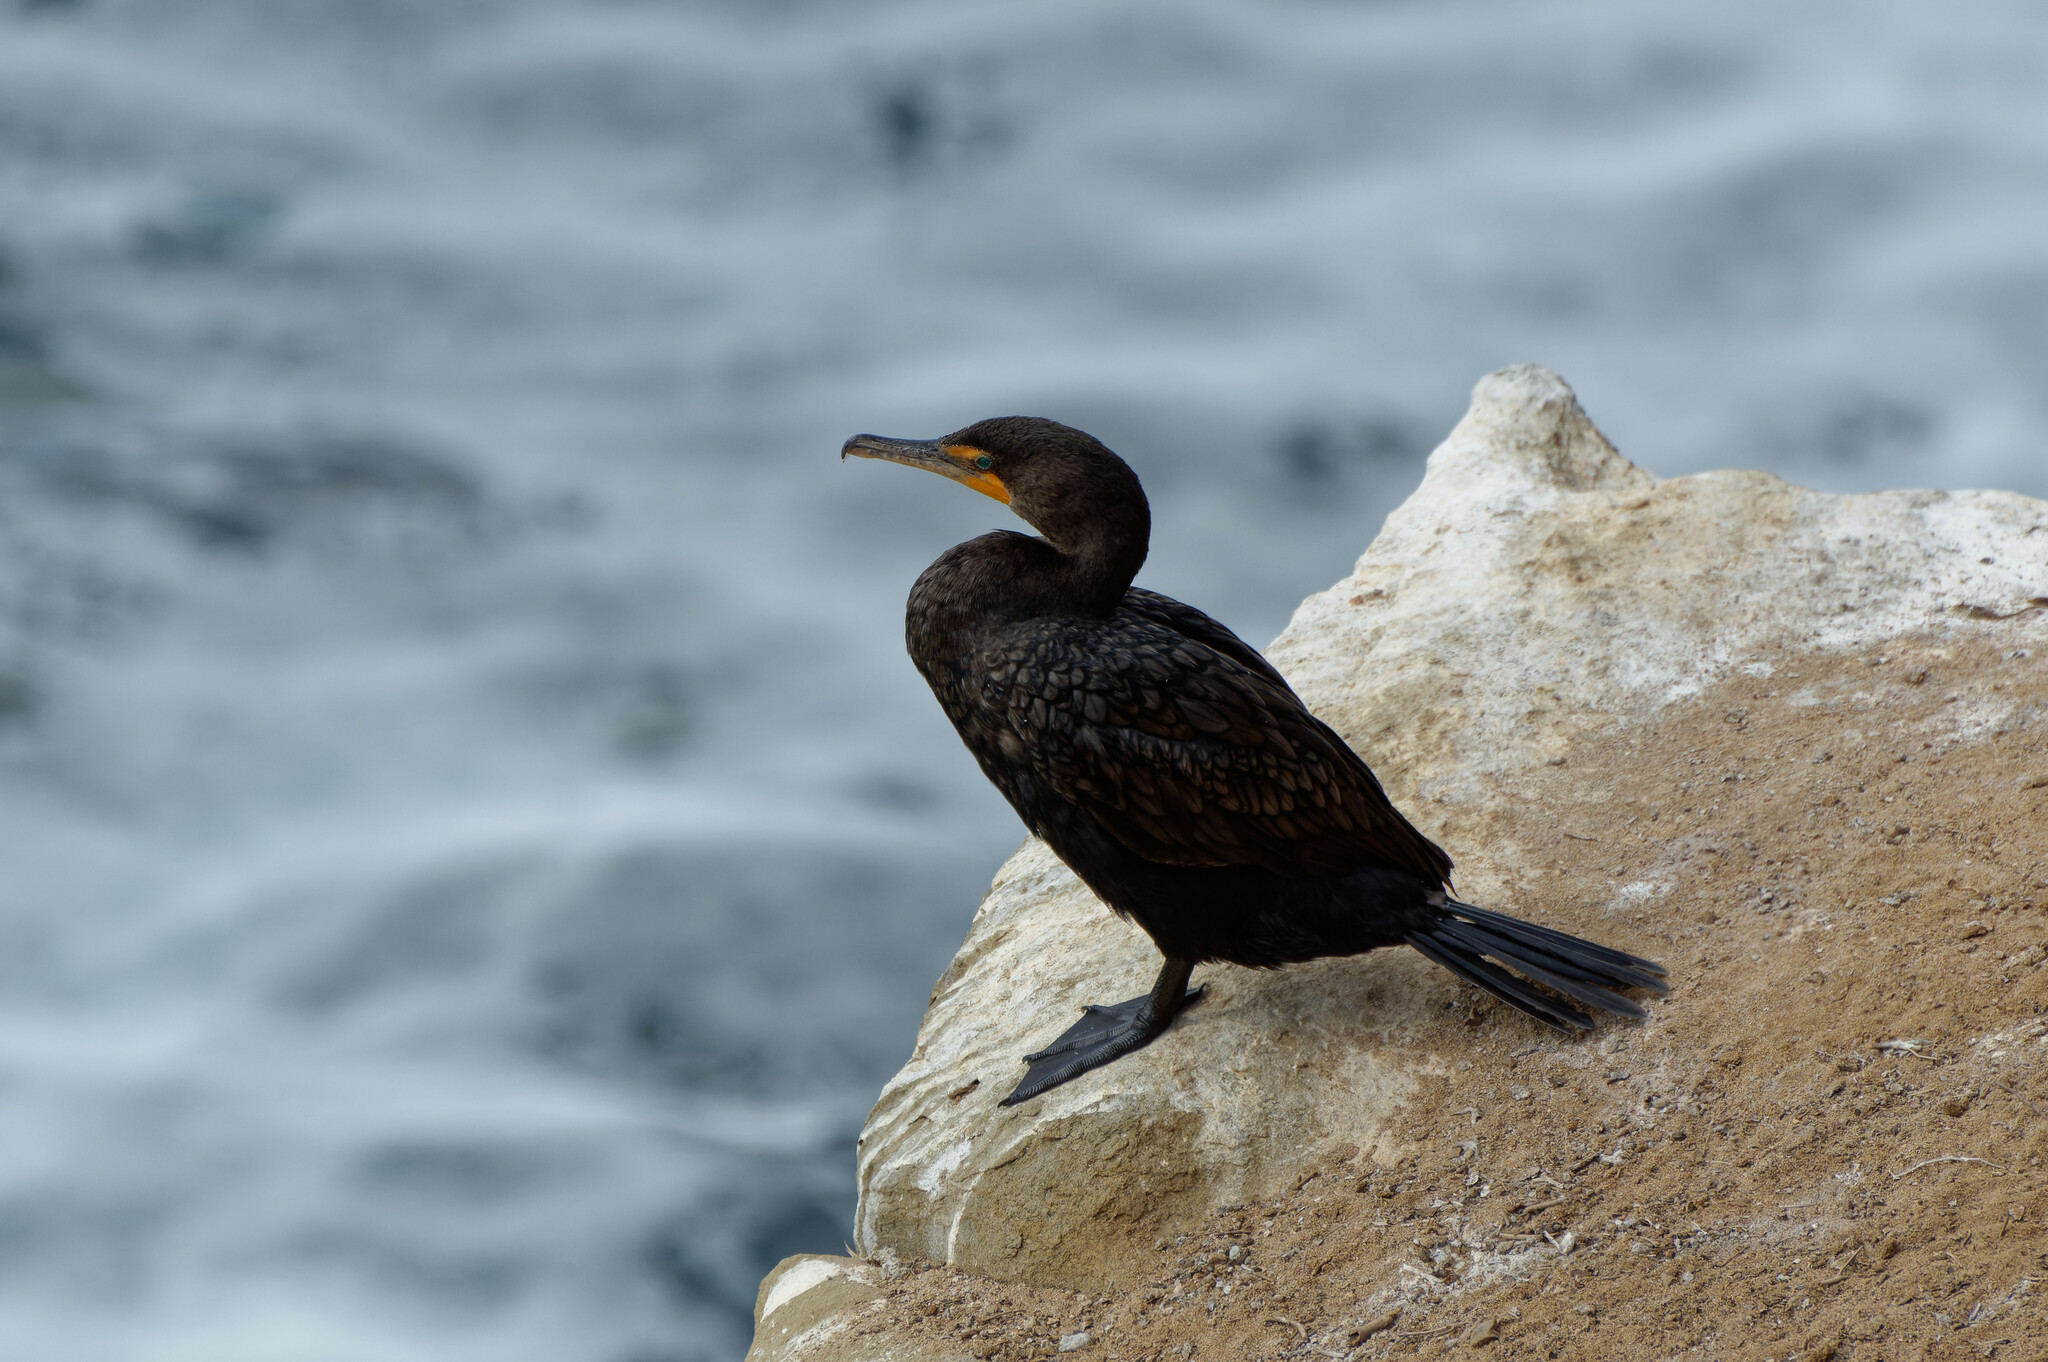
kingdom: Animalia
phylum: Chordata
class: Aves
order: Suliformes
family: Phalacrocoracidae
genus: Phalacrocorax
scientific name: Phalacrocorax auritus
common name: Double-crested cormorant
